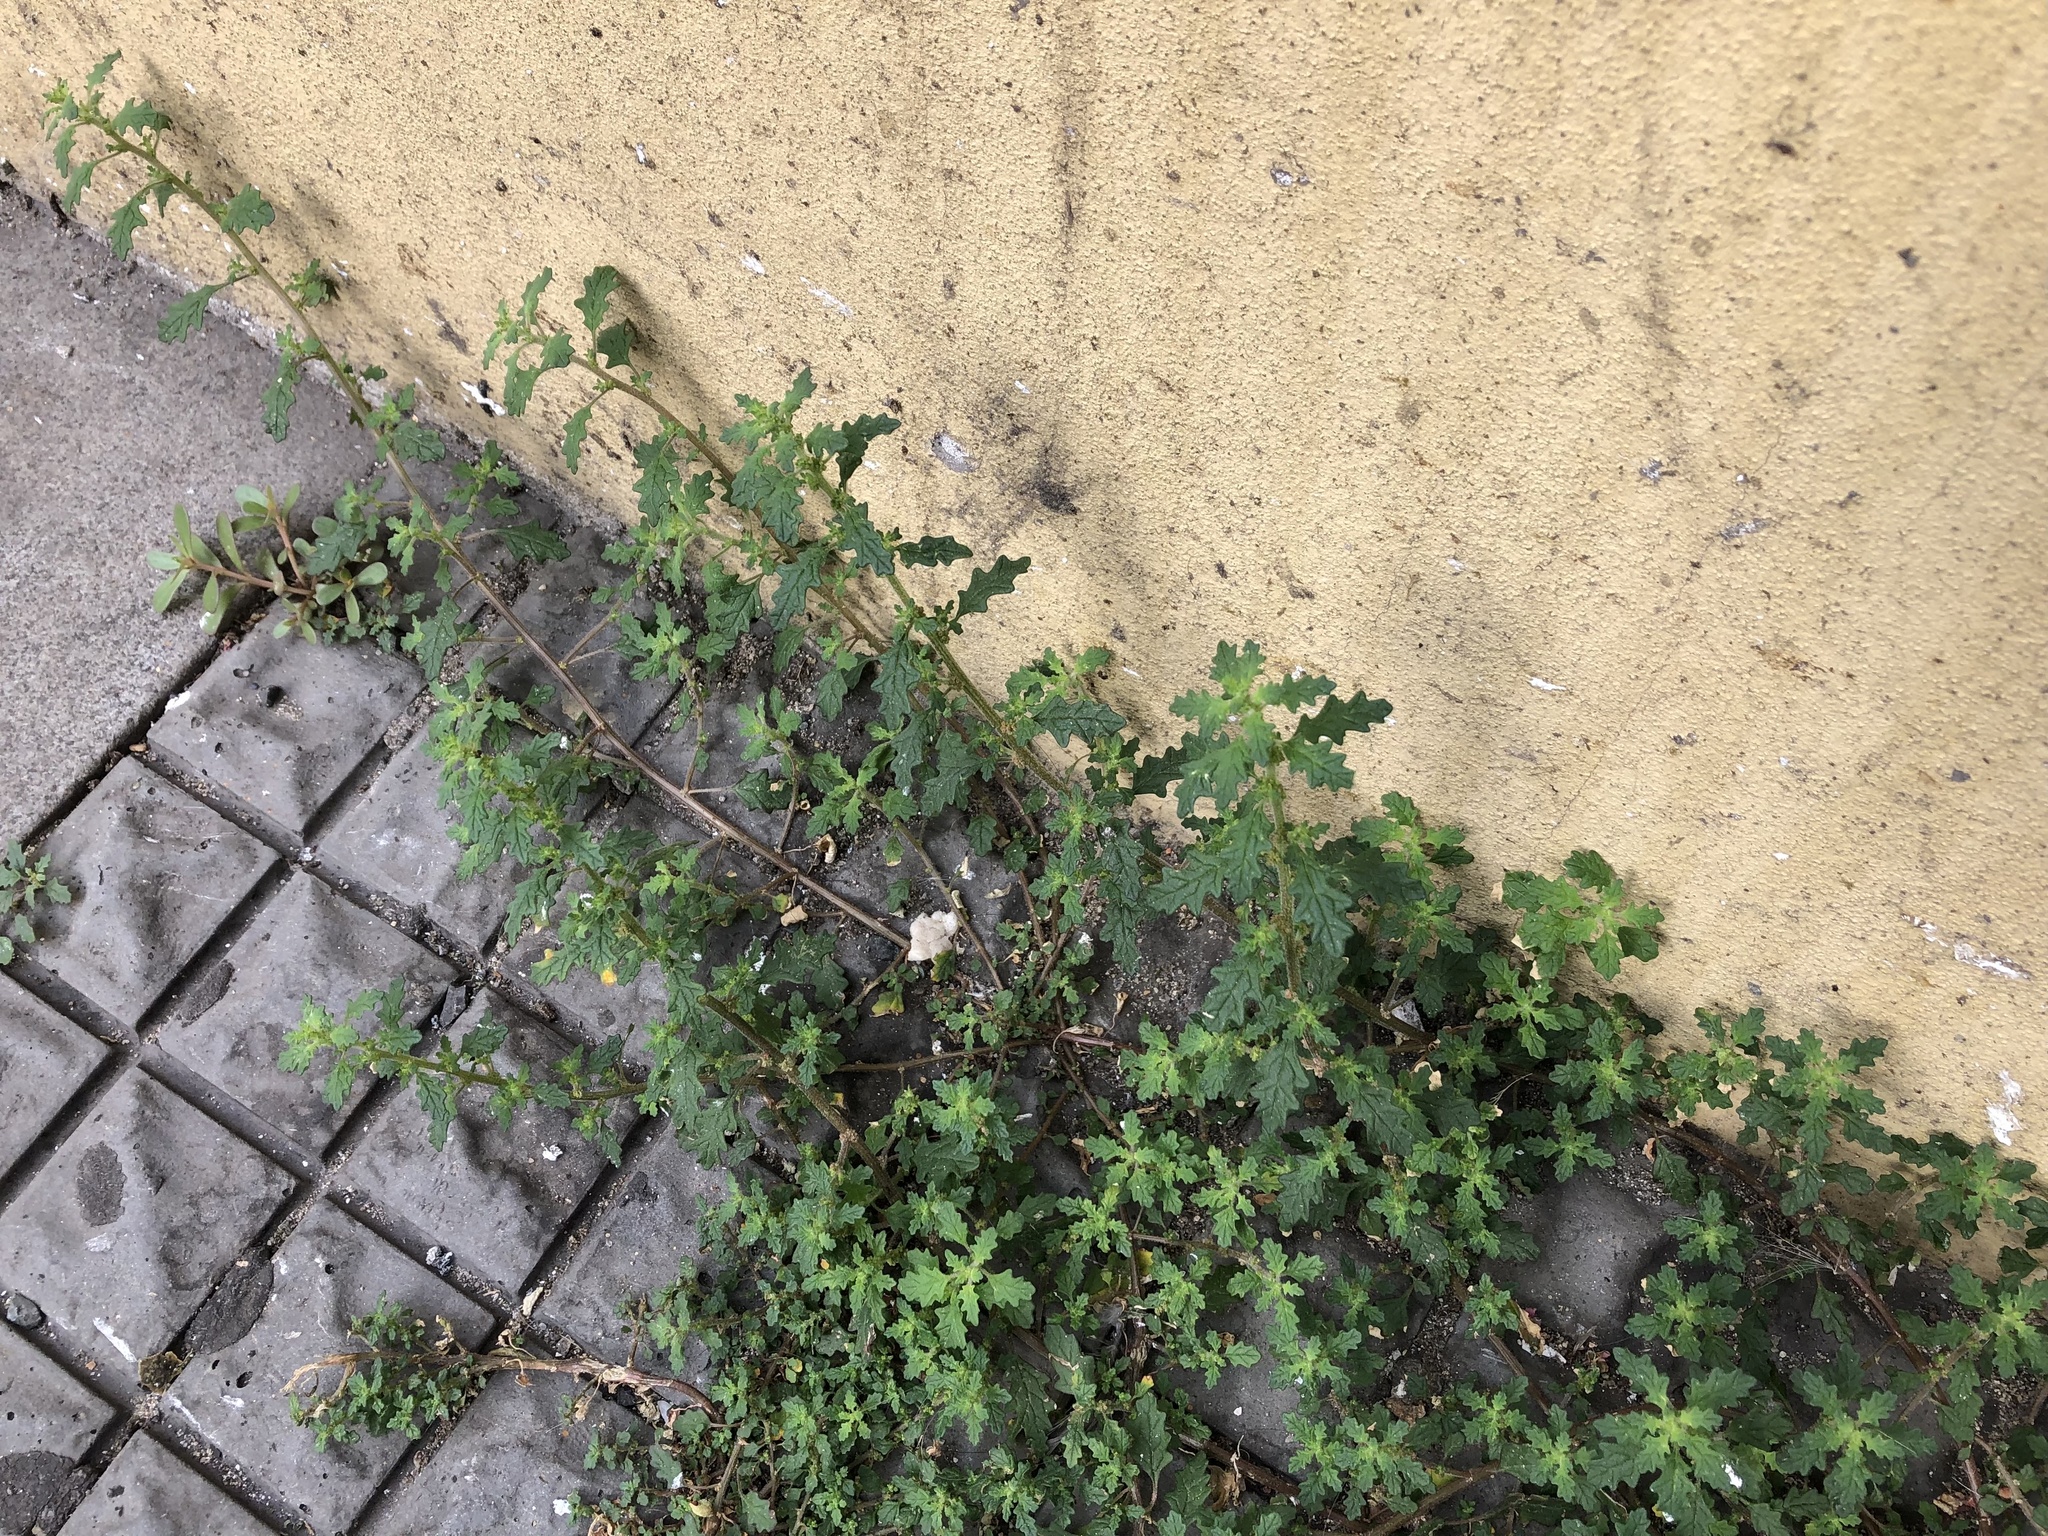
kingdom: Plantae
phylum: Tracheophyta
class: Magnoliopsida
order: Caryophyllales
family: Amaranthaceae
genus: Dysphania
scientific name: Dysphania pumilio
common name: Clammy goosefoot
